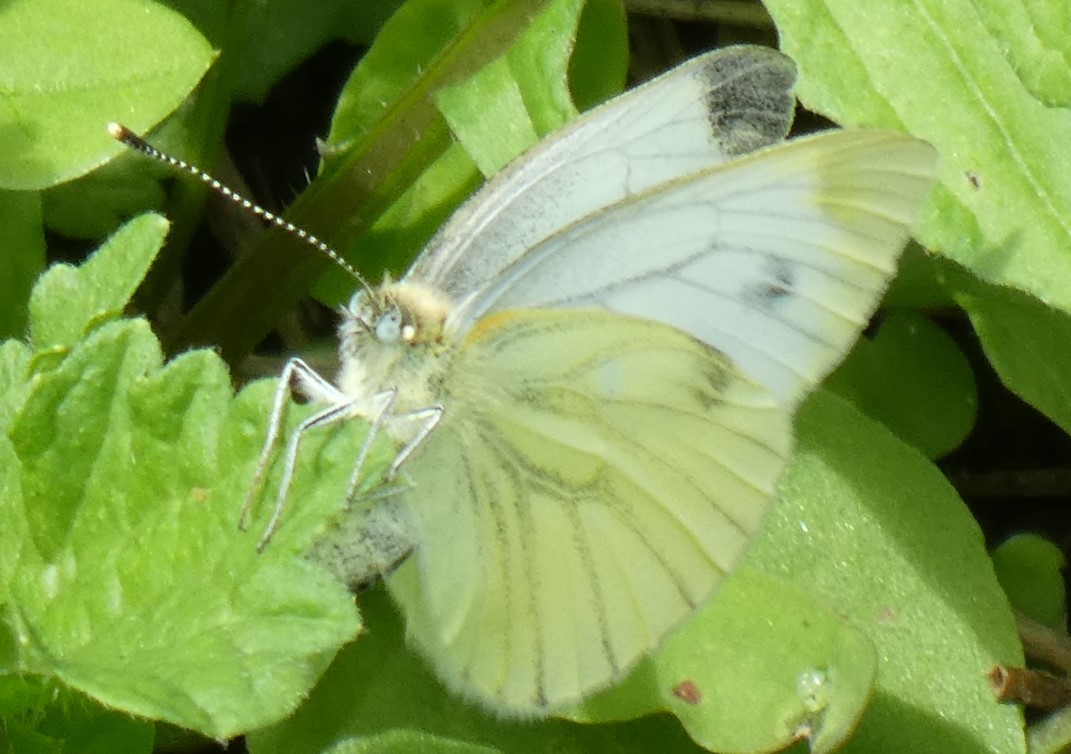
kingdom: Animalia
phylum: Arthropoda
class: Insecta
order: Lepidoptera
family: Pieridae
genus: Pieris
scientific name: Pieris napi
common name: Green-veined white
